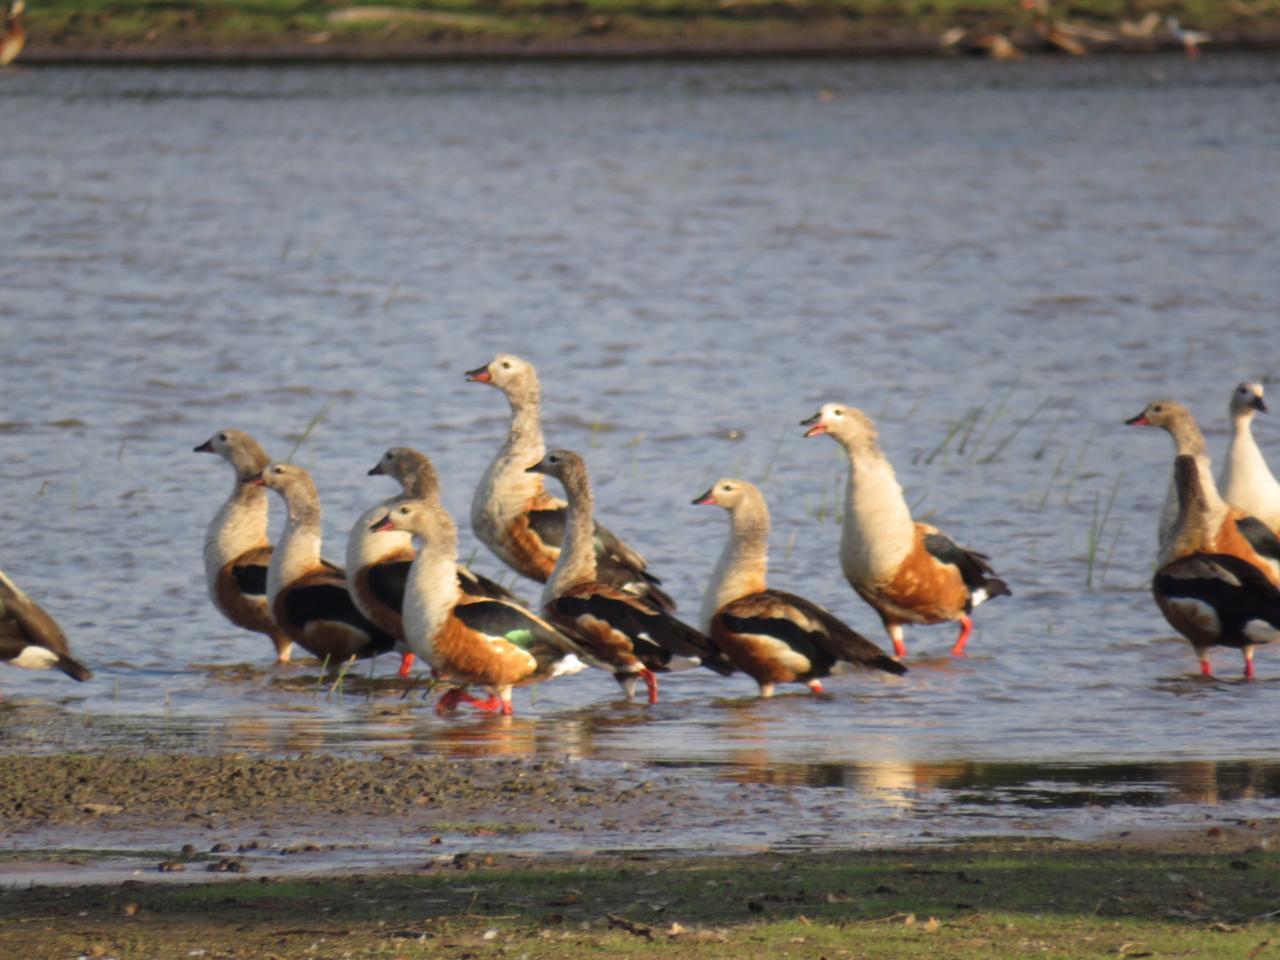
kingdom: Animalia
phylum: Chordata
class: Aves
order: Anseriformes
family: Anatidae
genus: Oressochen
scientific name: Oressochen jubatus
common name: Orinoco goose
